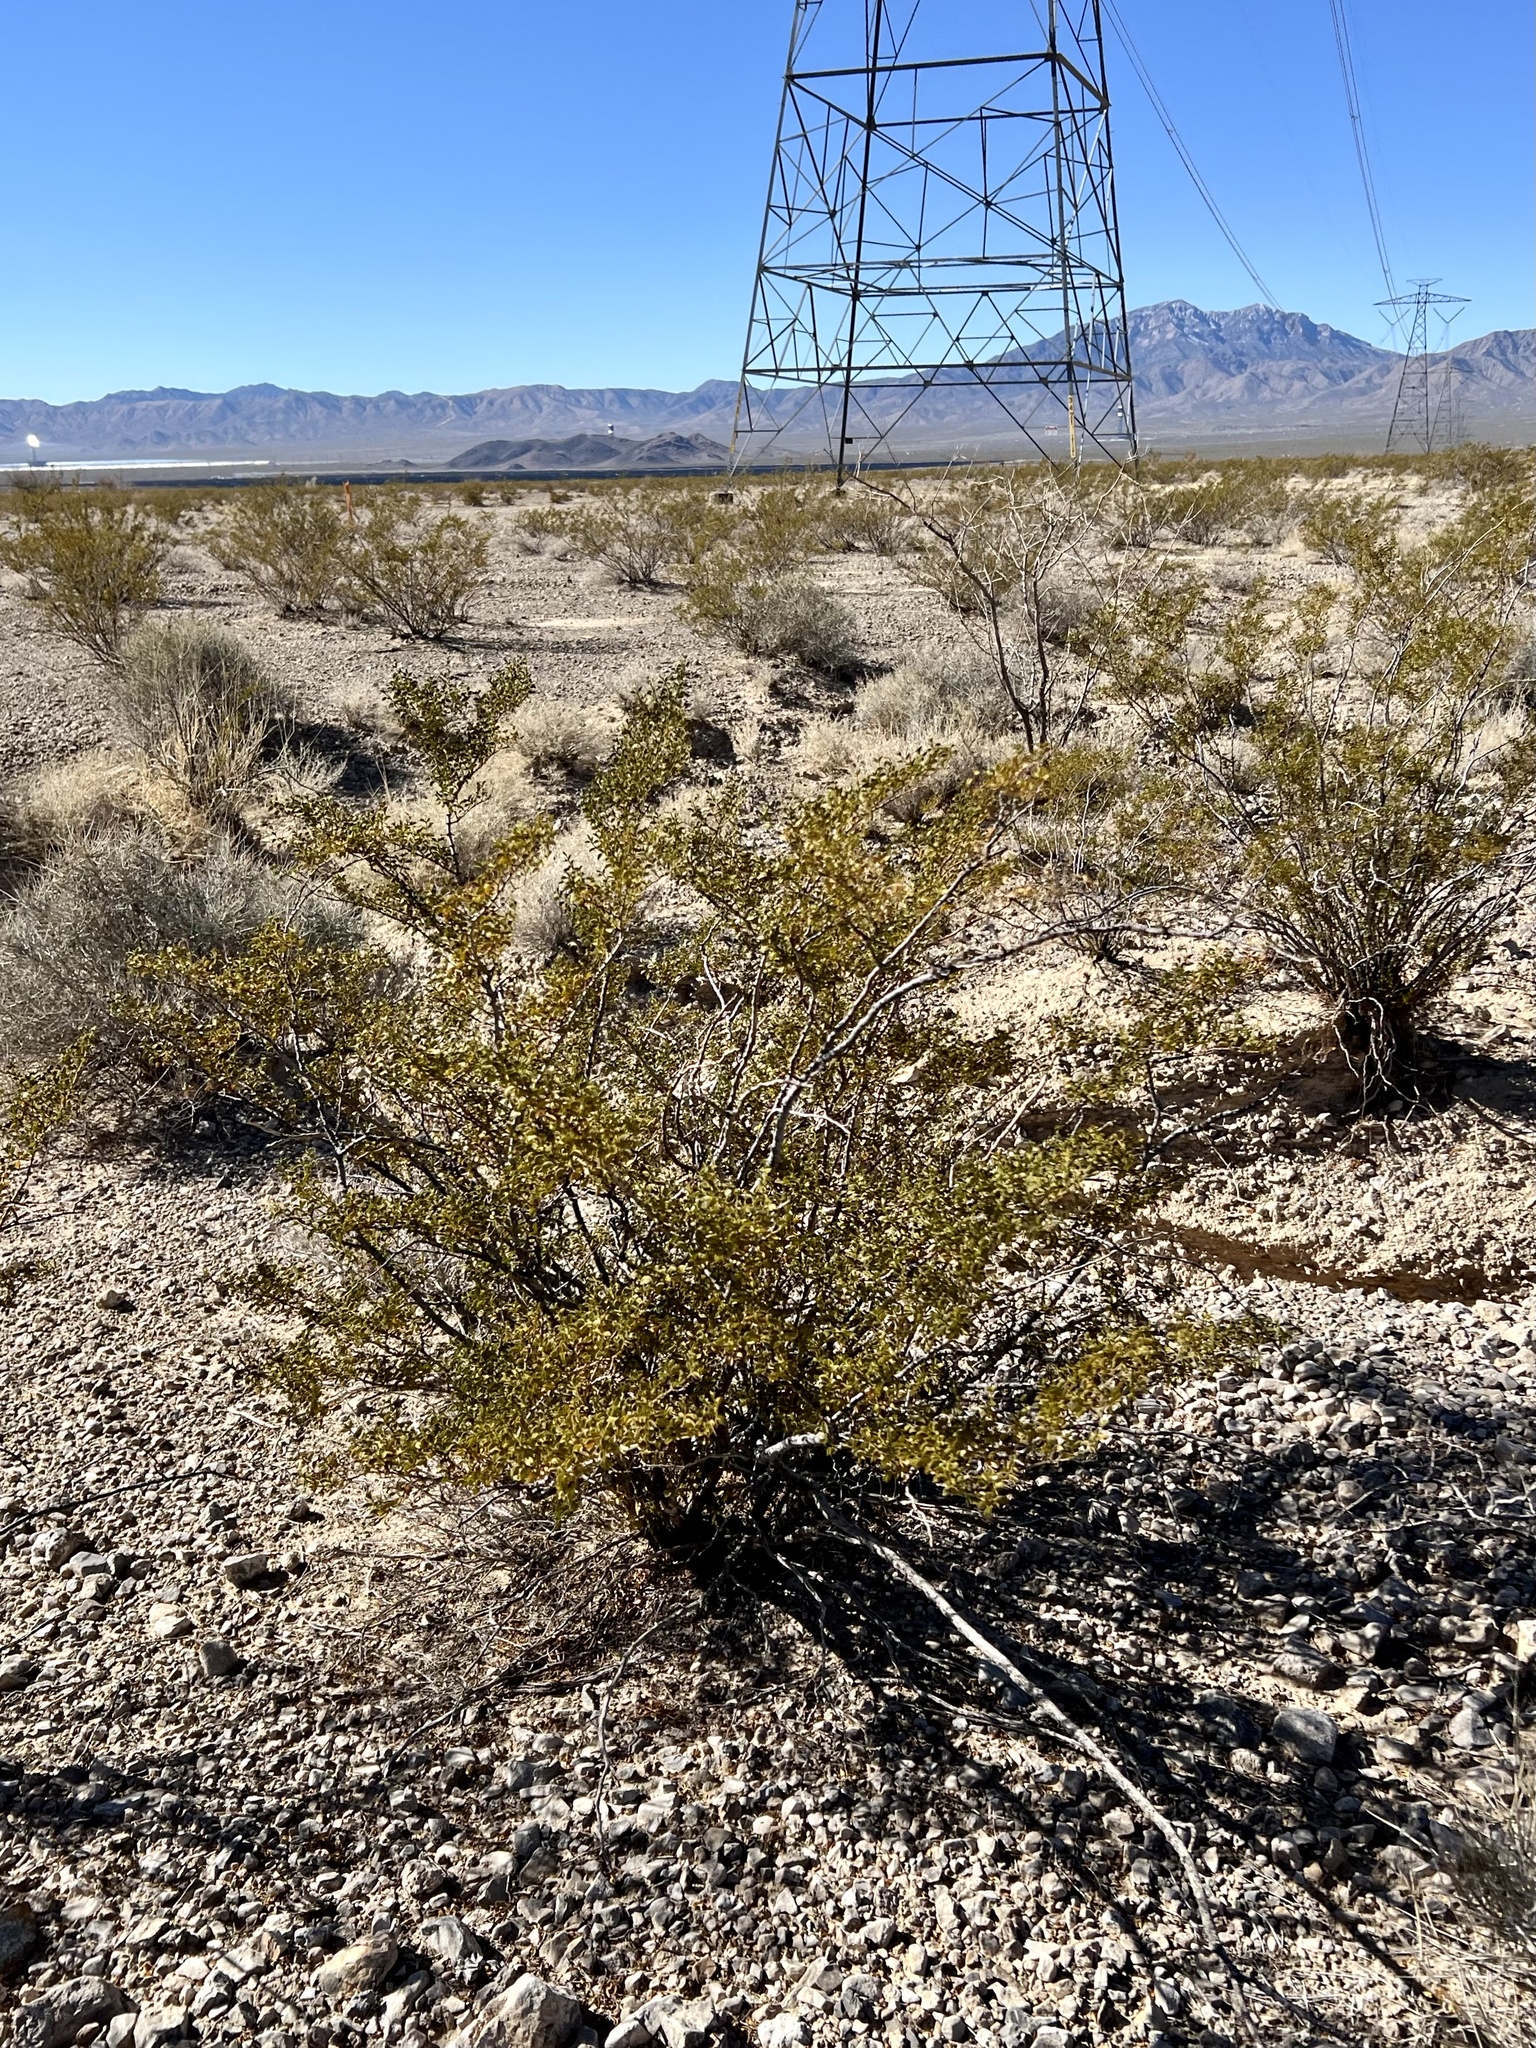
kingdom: Plantae
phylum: Tracheophyta
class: Magnoliopsida
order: Zygophyllales
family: Zygophyllaceae
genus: Larrea
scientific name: Larrea tridentata
